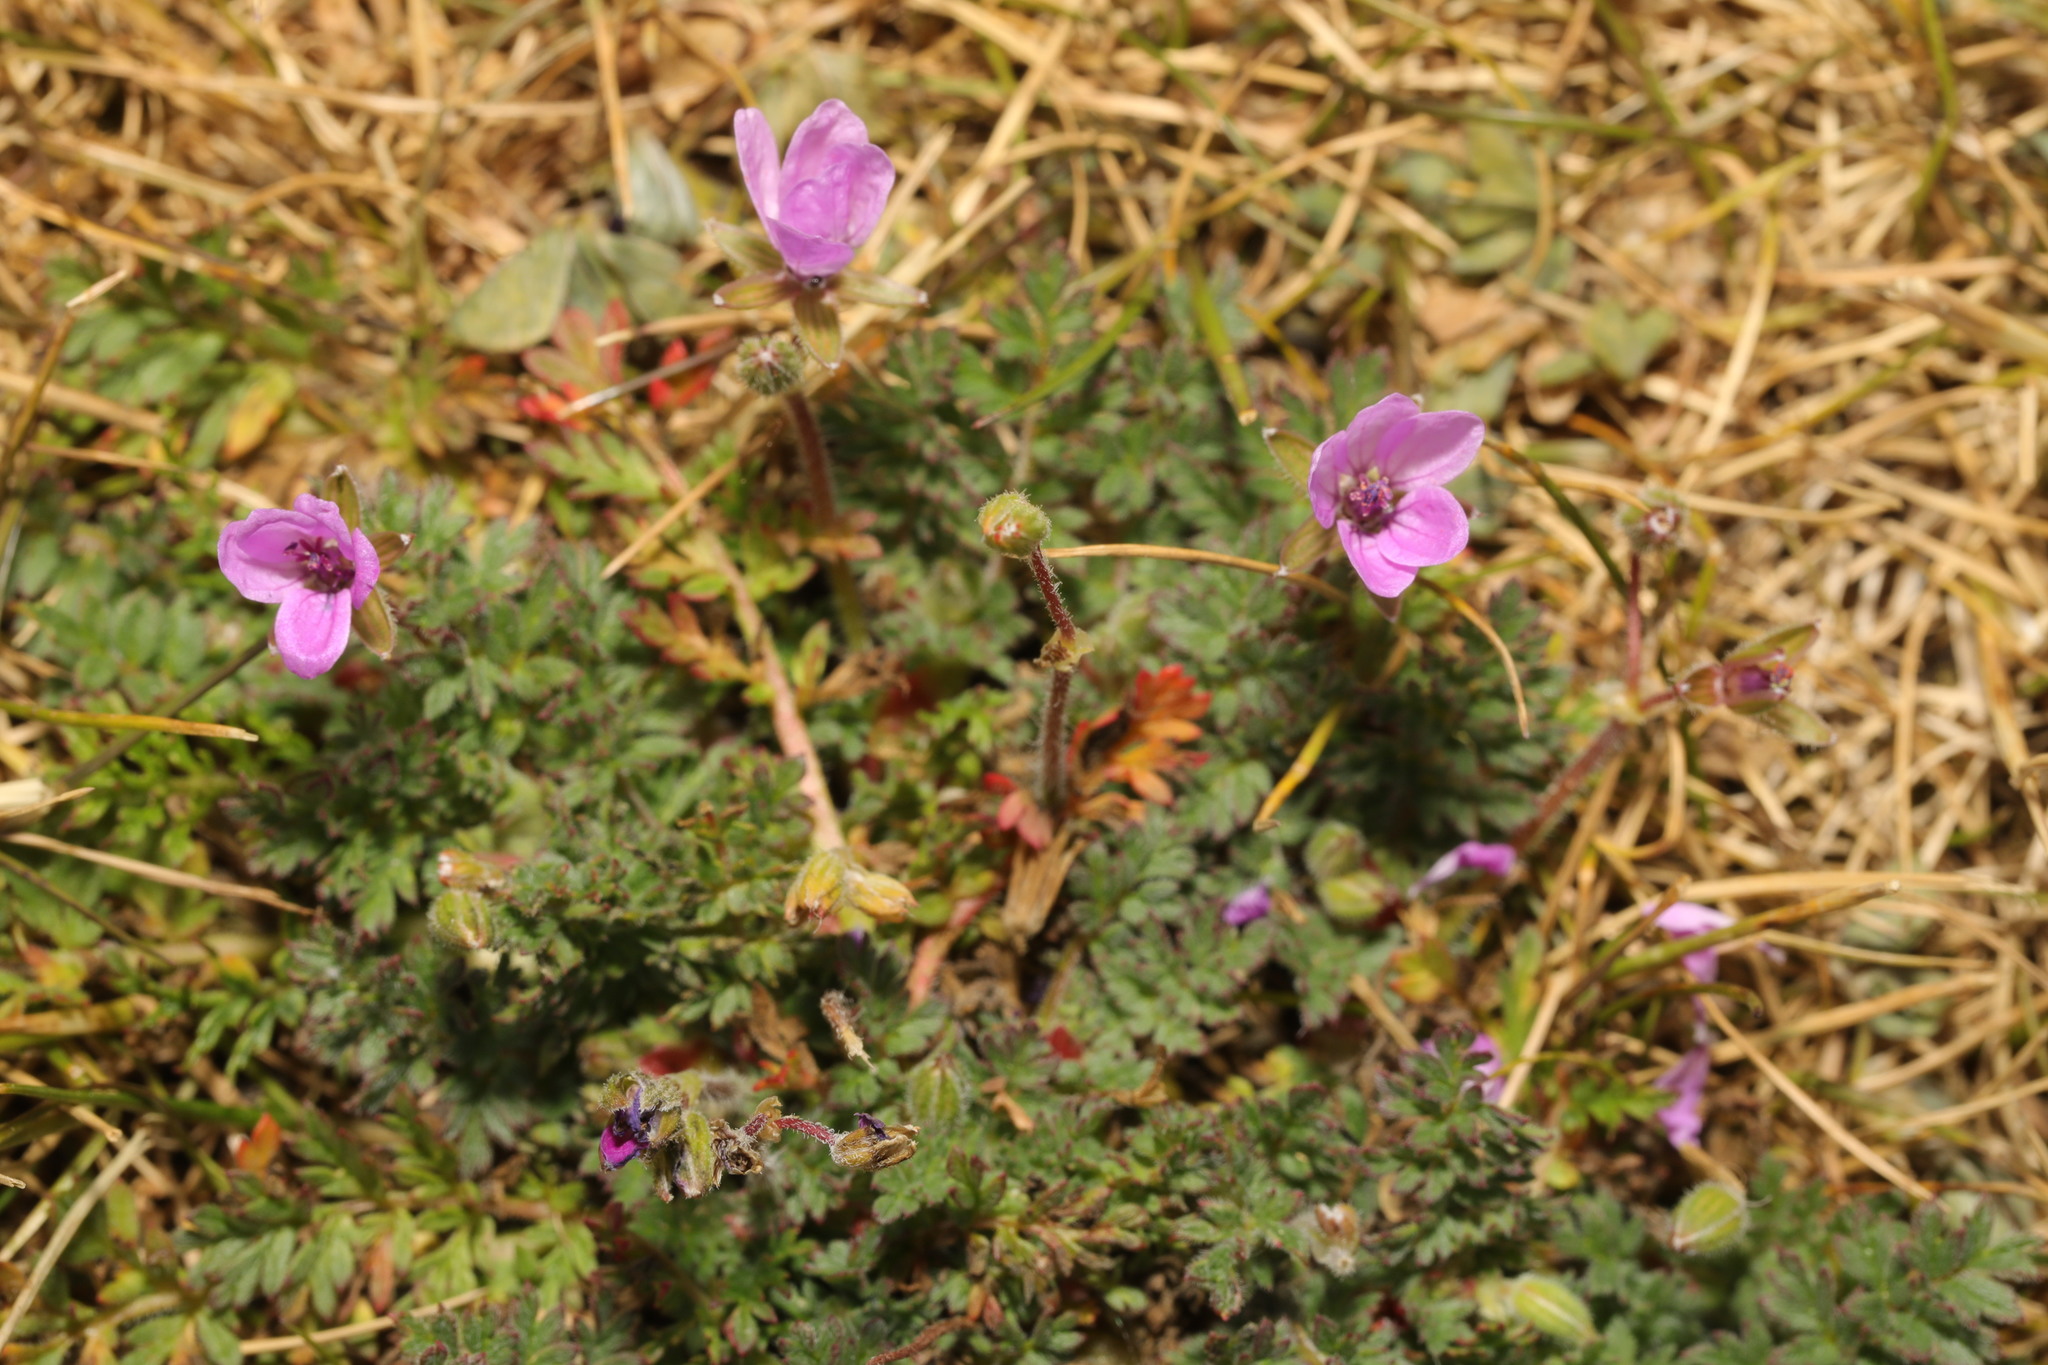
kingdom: Plantae
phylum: Tracheophyta
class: Magnoliopsida
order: Geraniales
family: Geraniaceae
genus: Erodium
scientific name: Erodium cicutarium
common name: Common stork's-bill
